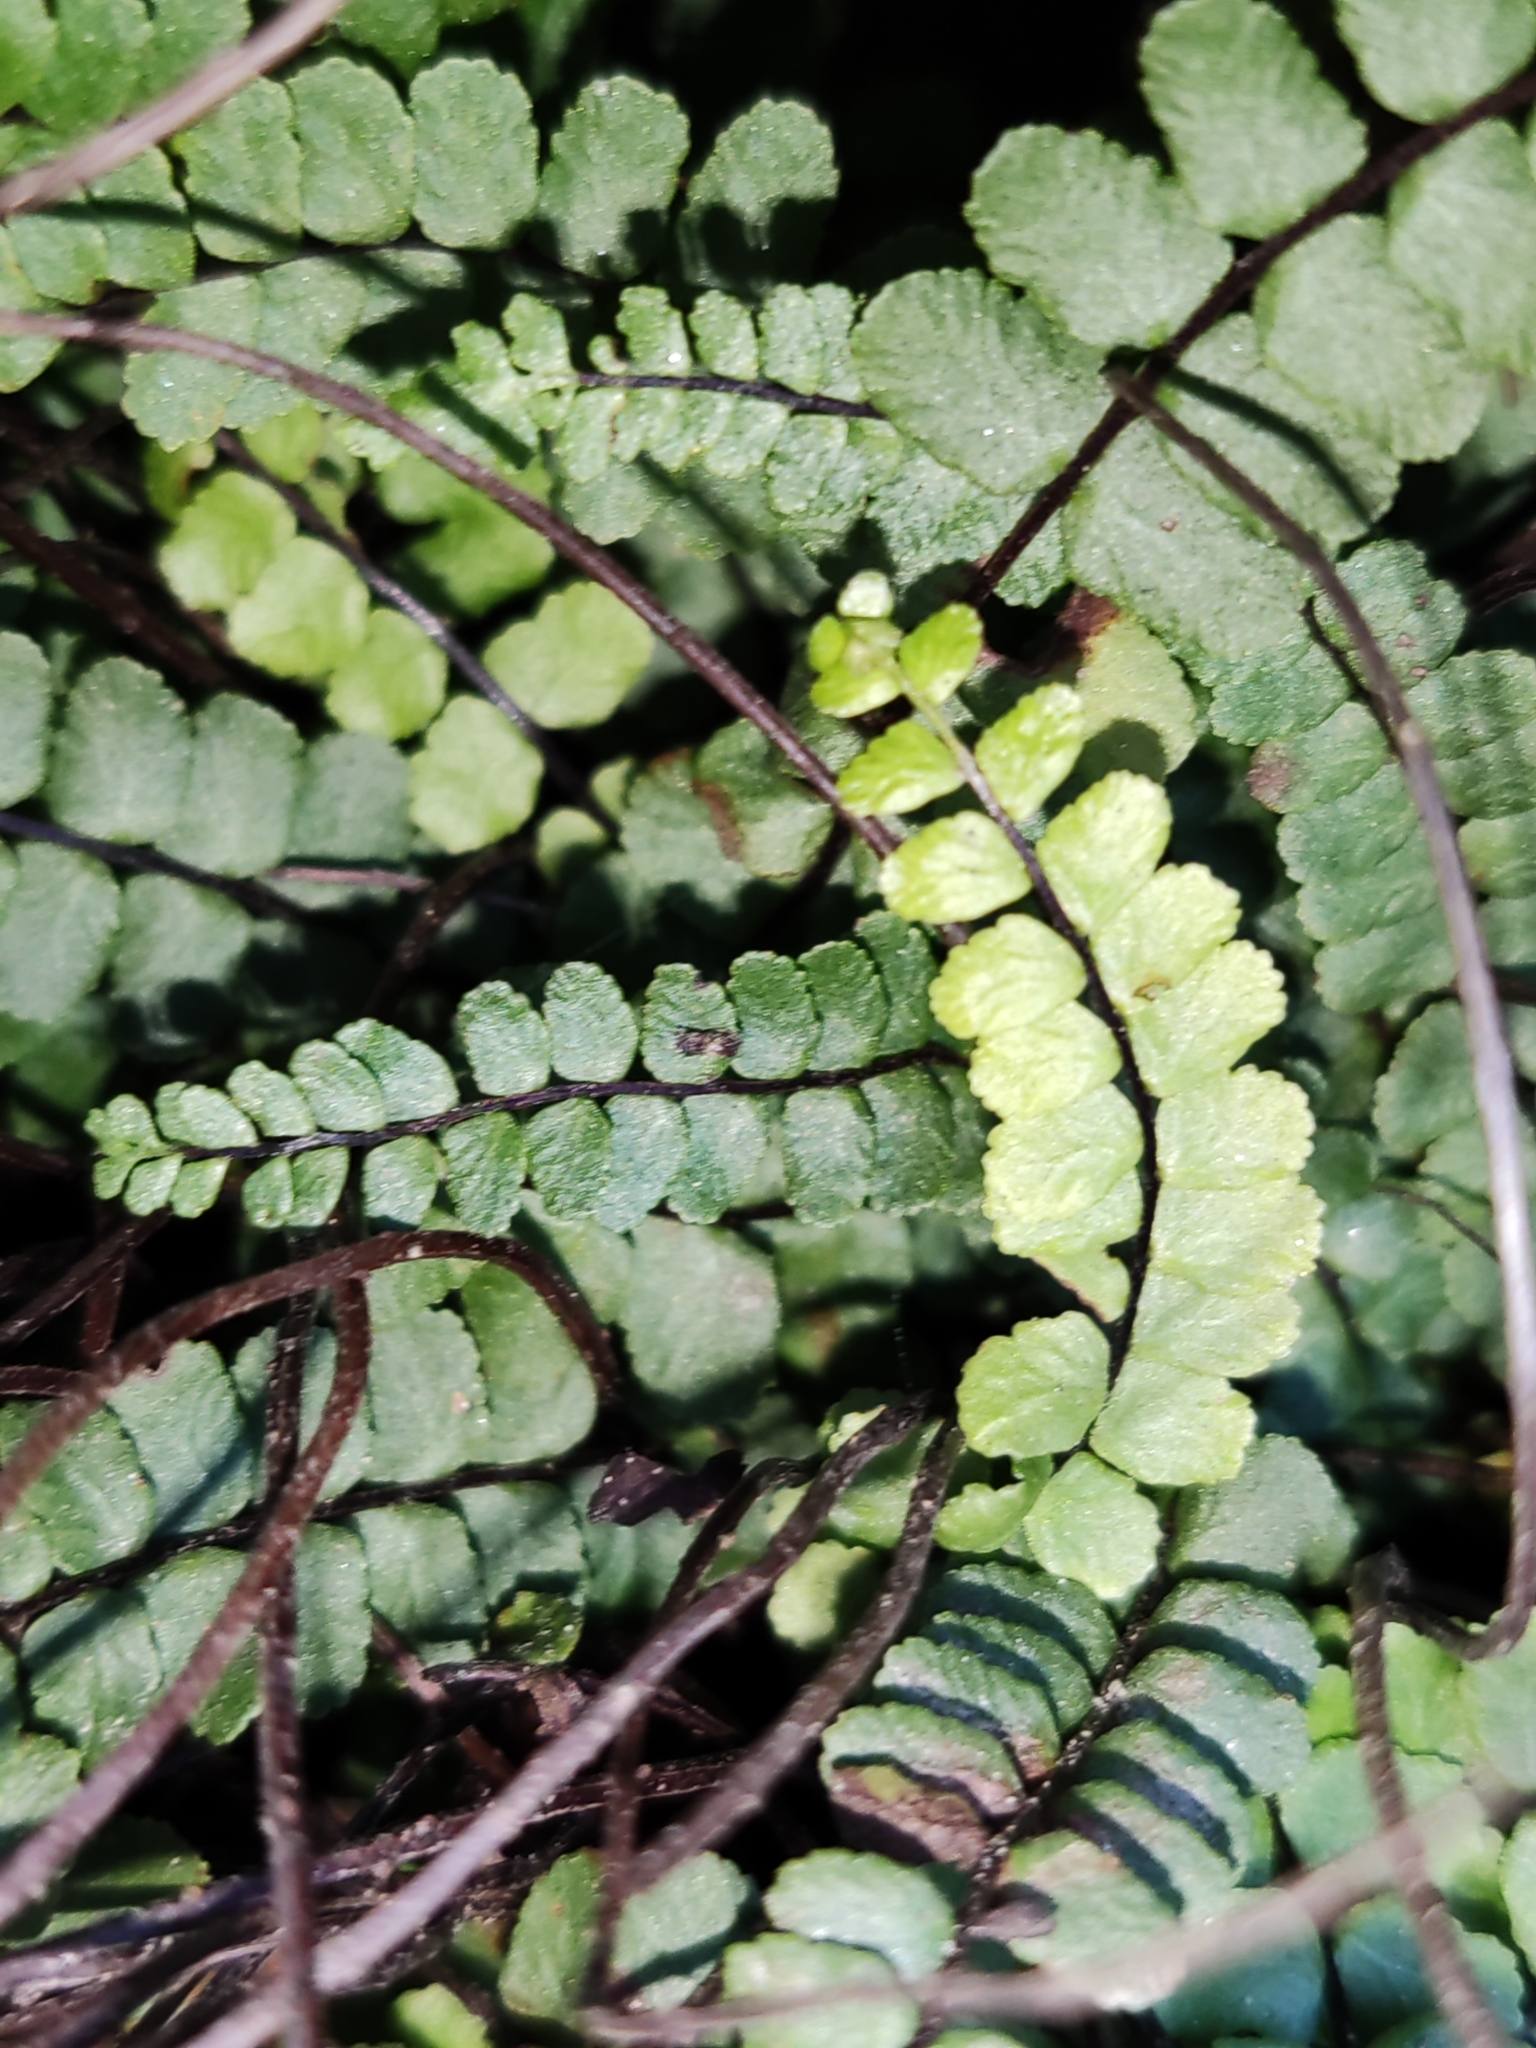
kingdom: Plantae
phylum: Tracheophyta
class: Polypodiopsida
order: Polypodiales
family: Aspleniaceae
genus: Asplenium
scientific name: Asplenium trichomanes
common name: Maidenhair spleenwort
